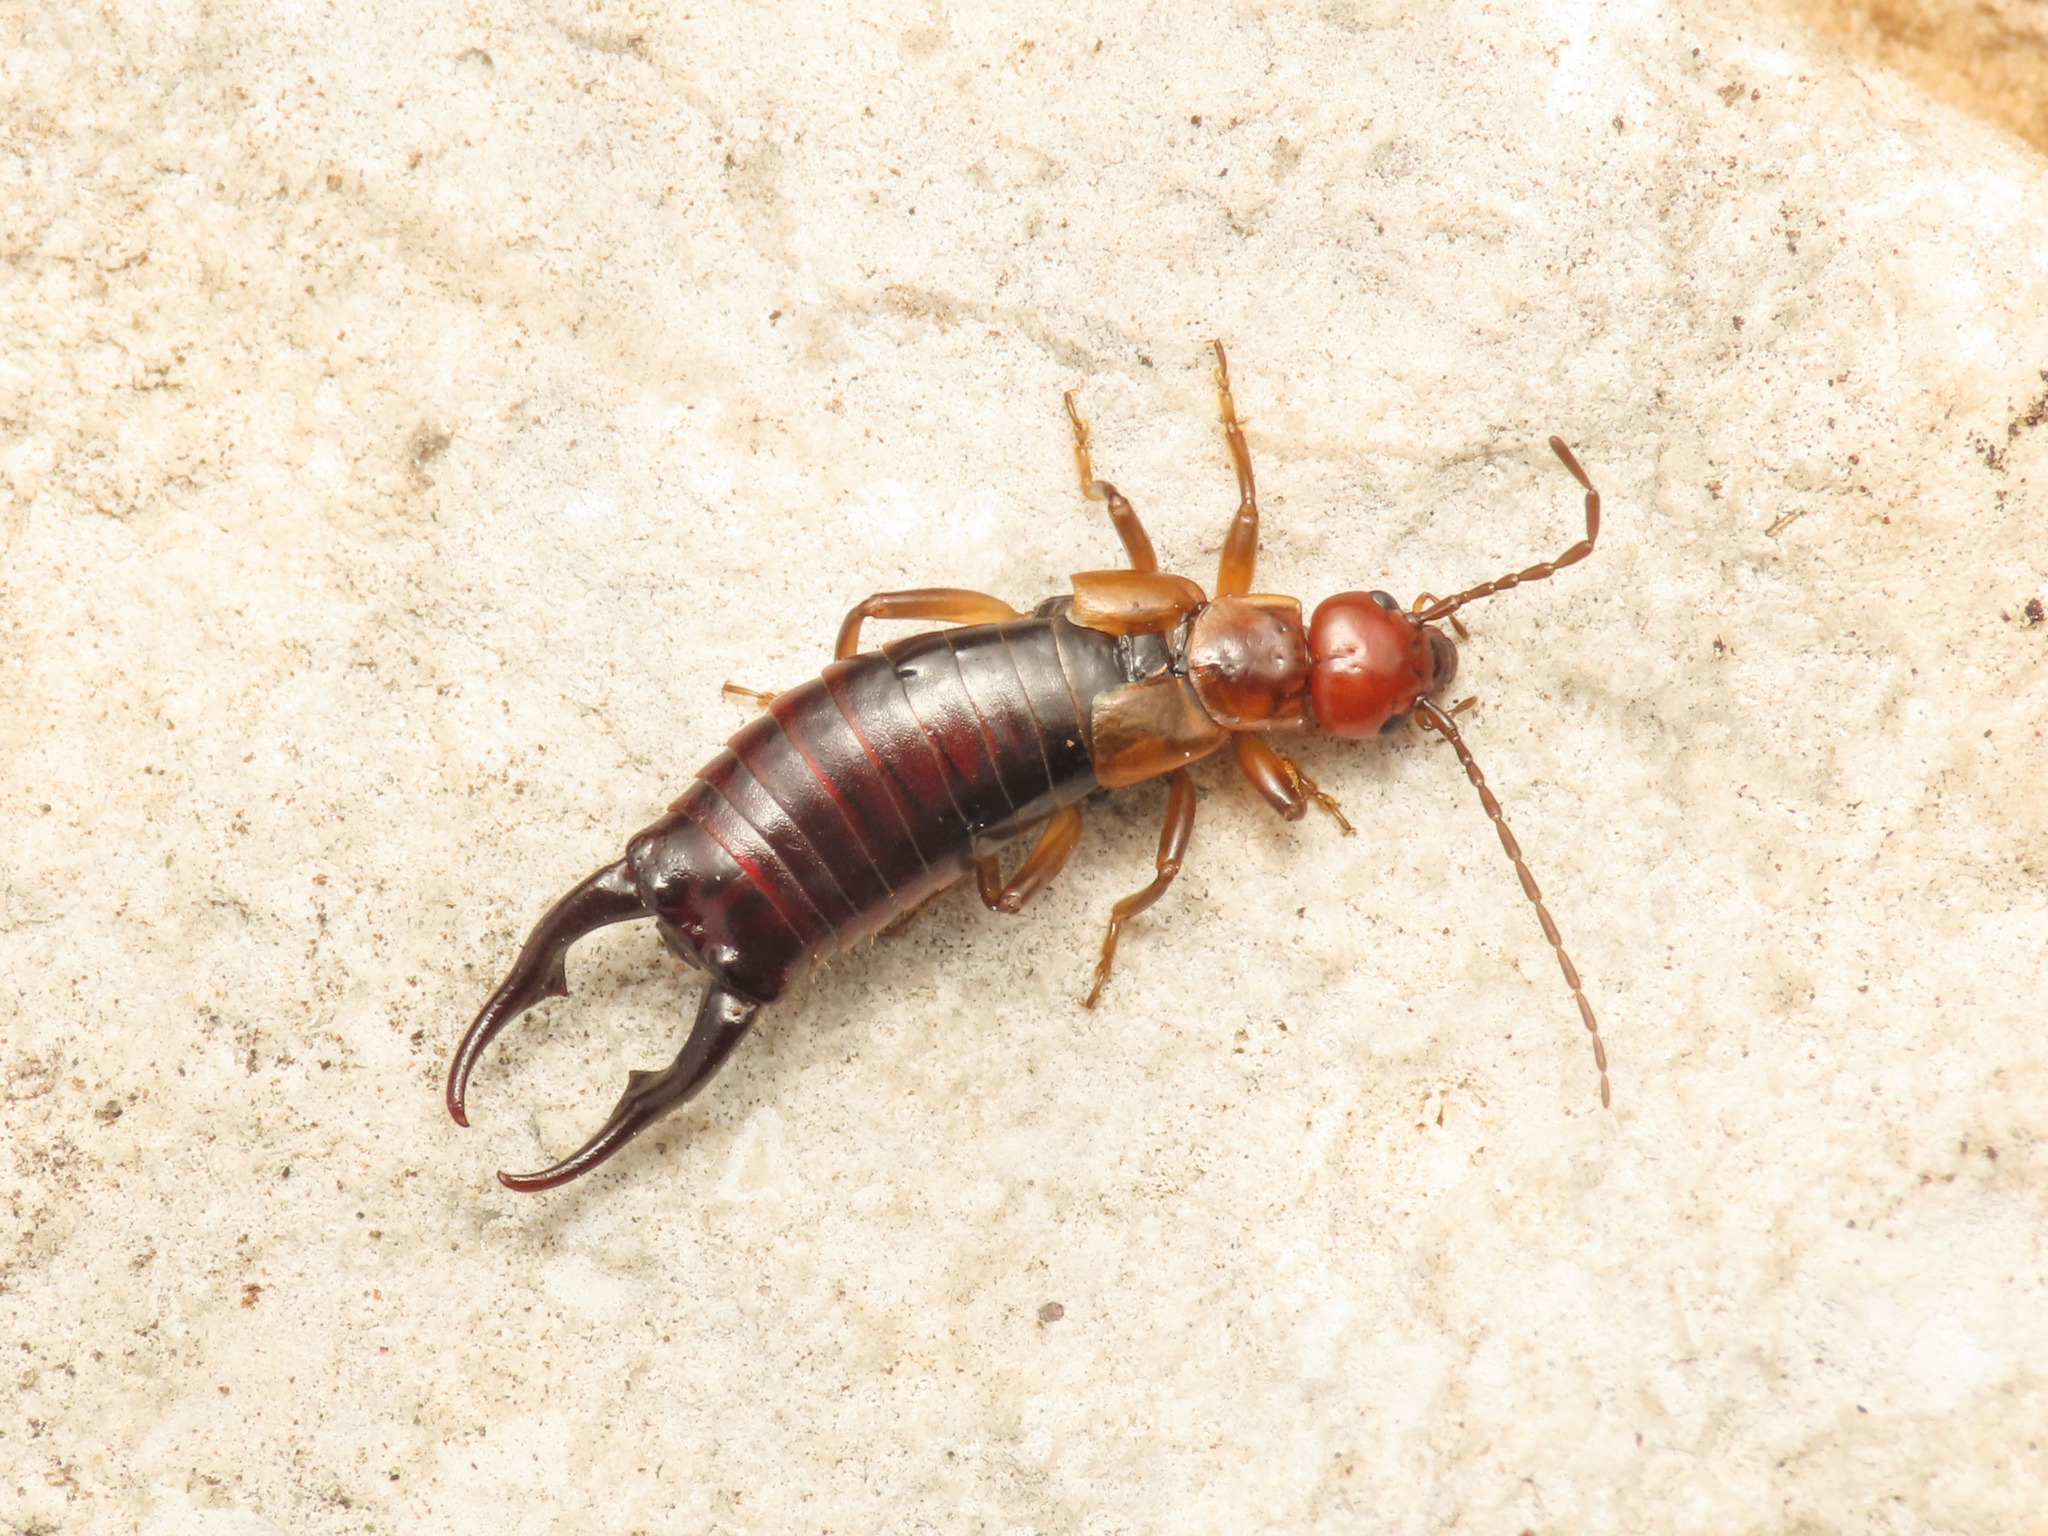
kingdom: Animalia
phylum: Arthropoda
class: Insecta
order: Dermaptera
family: Forficulidae
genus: Pseudochelidura
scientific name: Pseudochelidura orsinii
